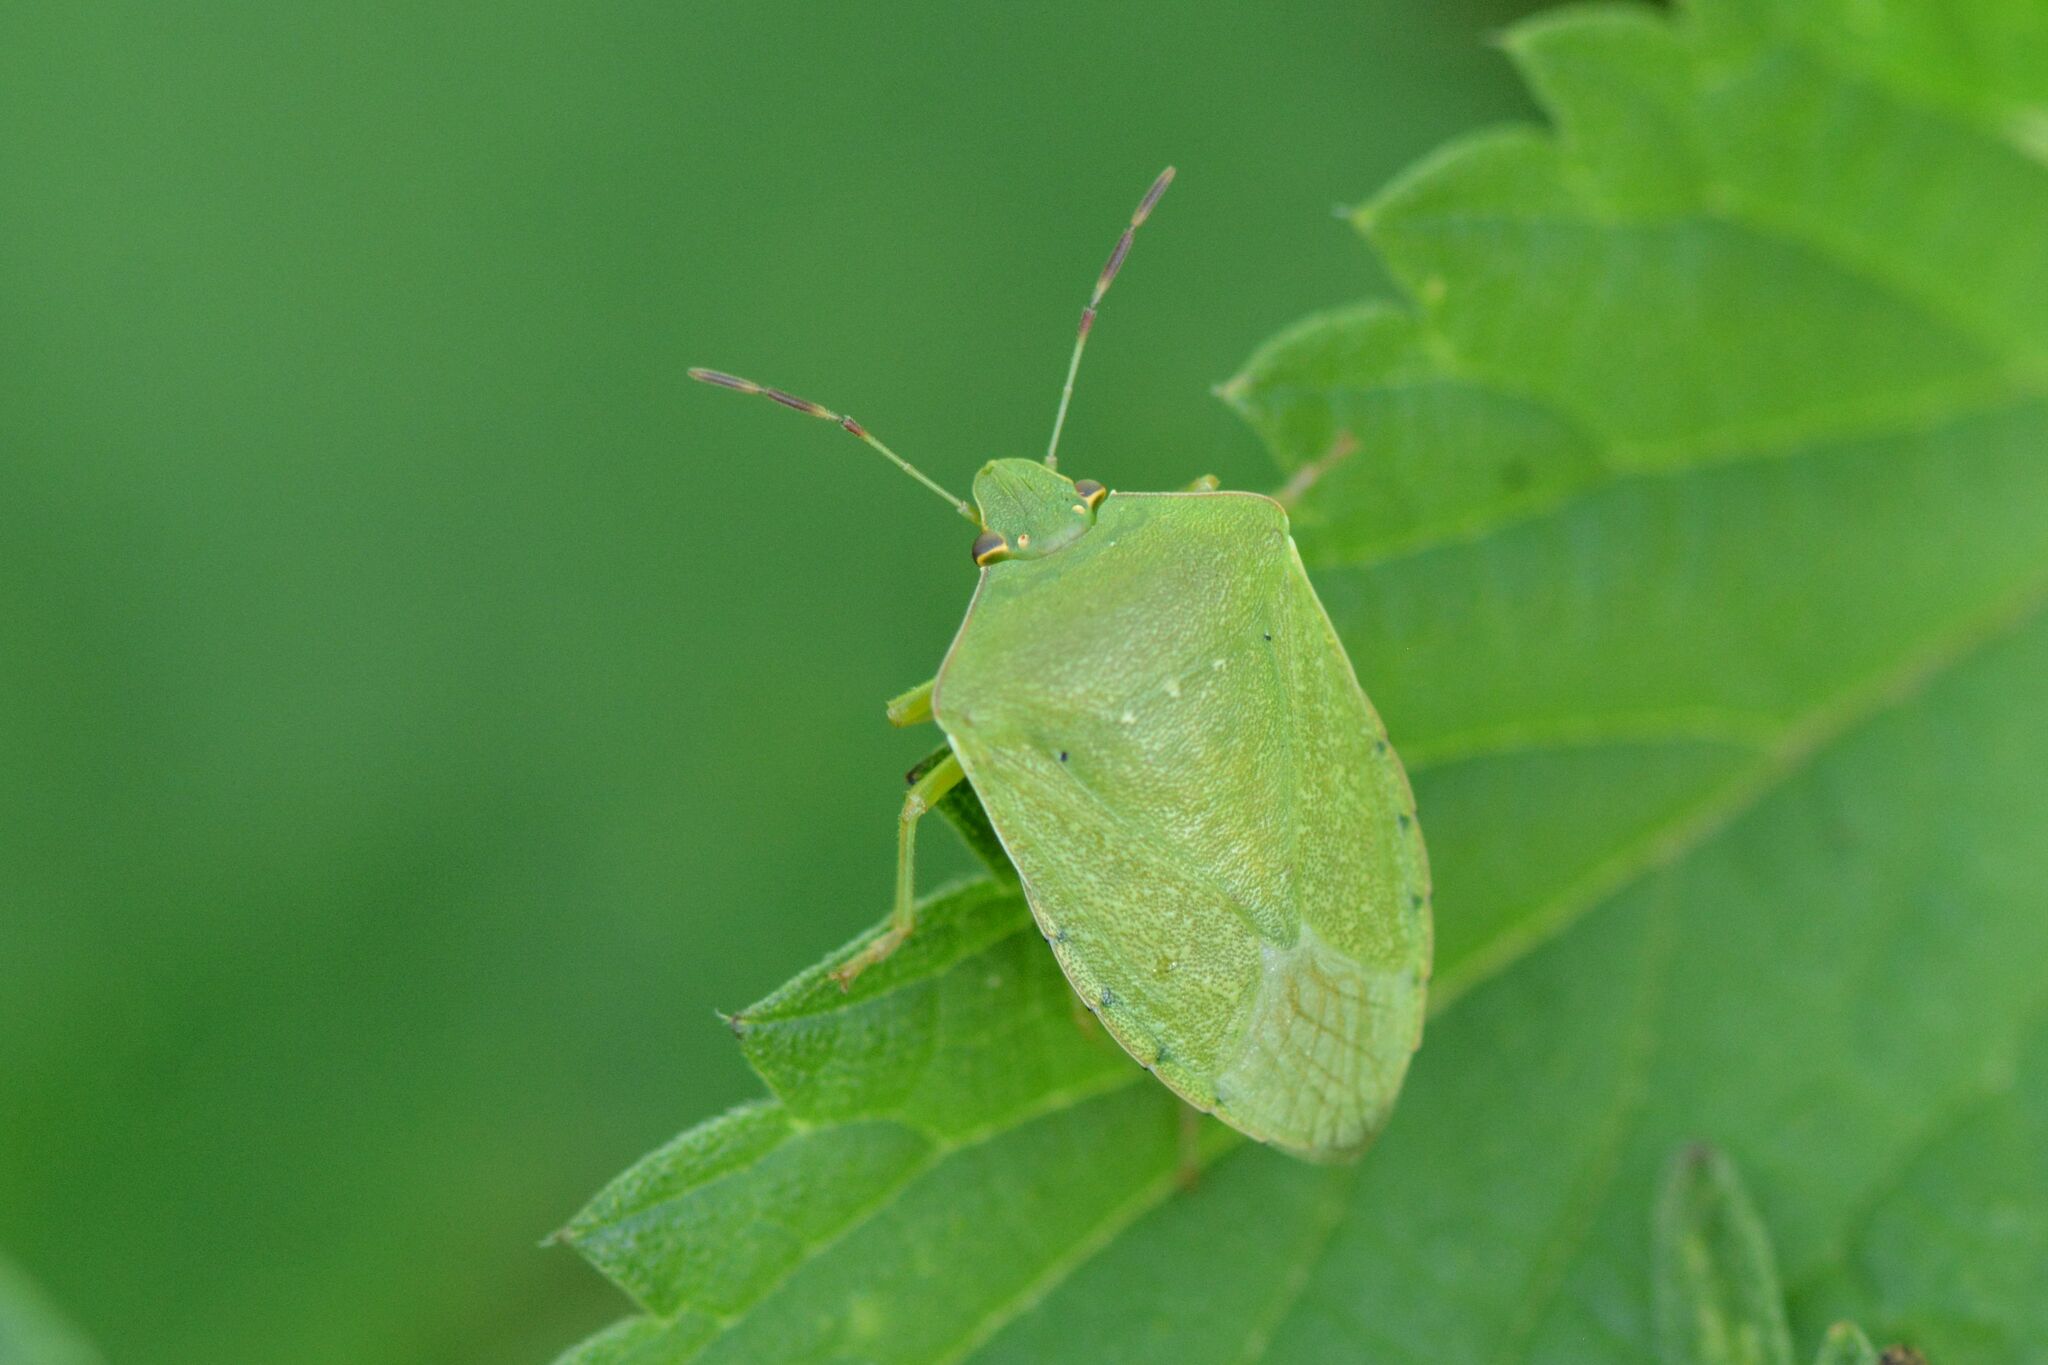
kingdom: Animalia
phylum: Arthropoda
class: Insecta
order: Hemiptera
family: Pentatomidae
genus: Nezara
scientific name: Nezara viridula
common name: Southern green stink bug
